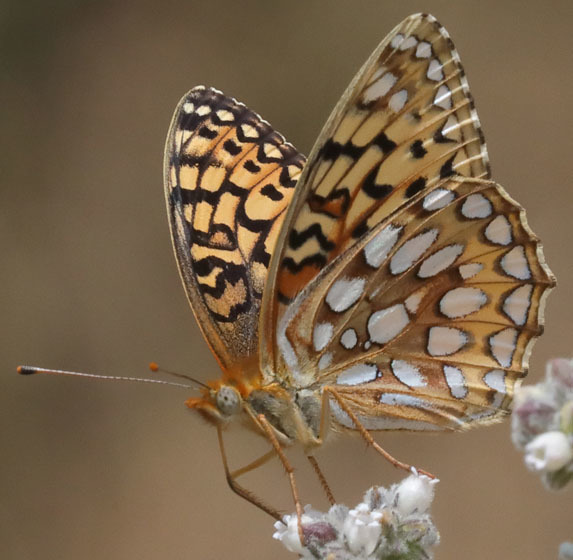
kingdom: Animalia
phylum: Arthropoda
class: Insecta
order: Lepidoptera
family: Nymphalidae
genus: Speyeria
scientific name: Speyeria callippe
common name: Callippe fritillary
